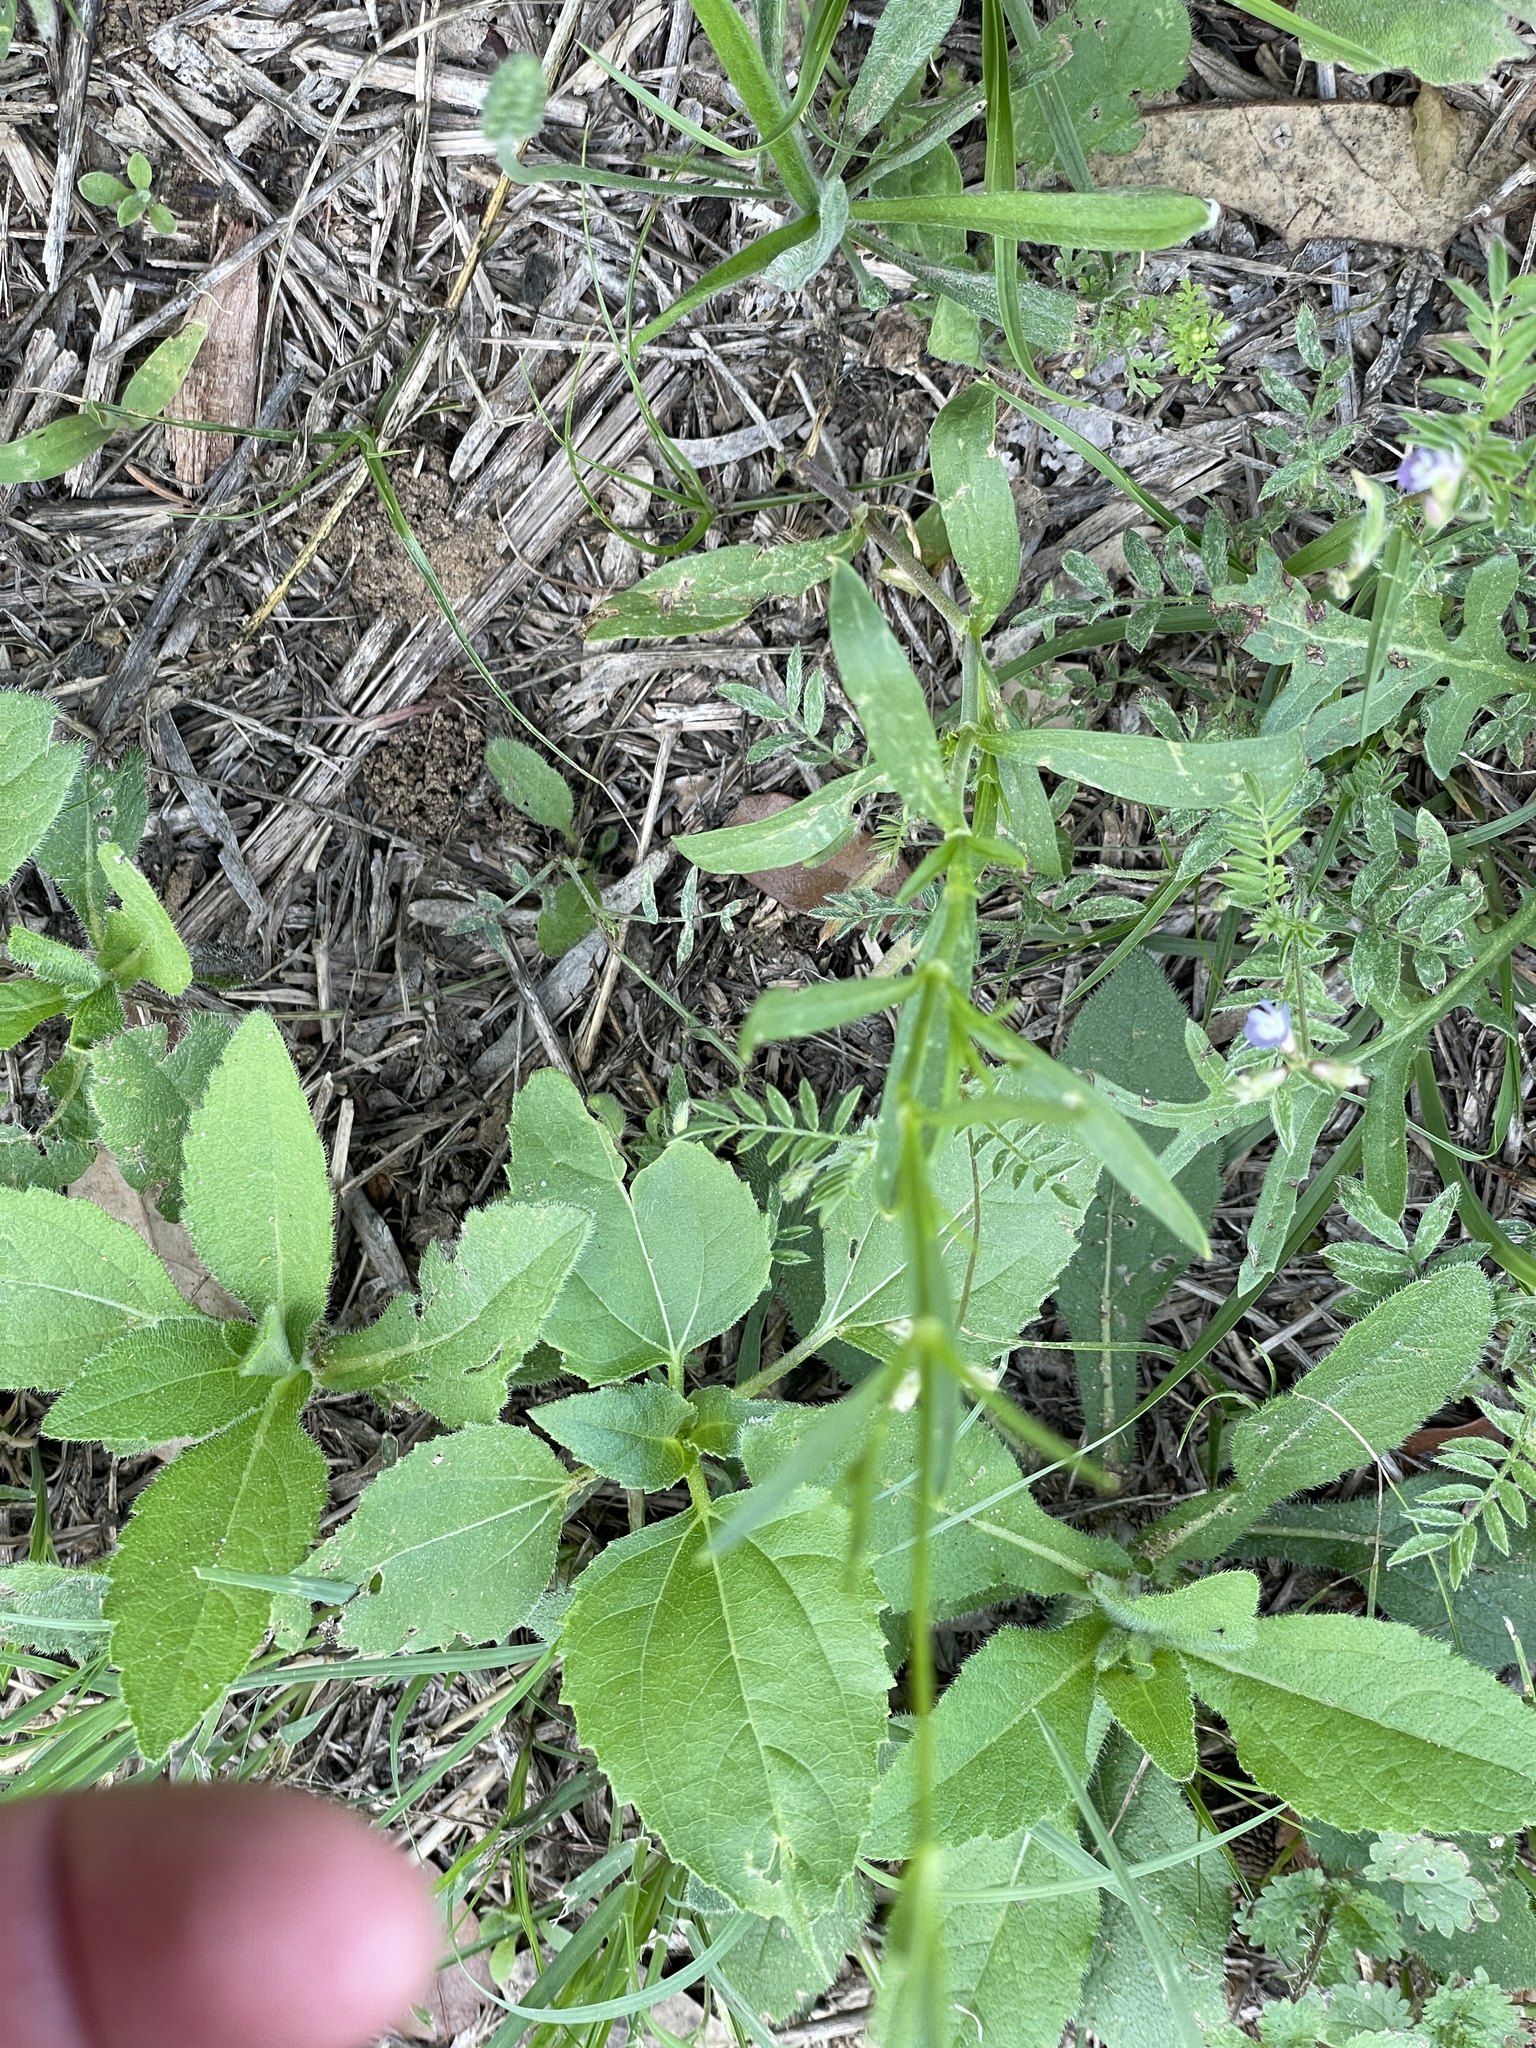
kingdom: Plantae
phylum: Tracheophyta
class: Magnoliopsida
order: Caryophyllales
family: Caryophyllaceae
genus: Silene
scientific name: Silene antirrhina
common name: Sleepy catchfly
